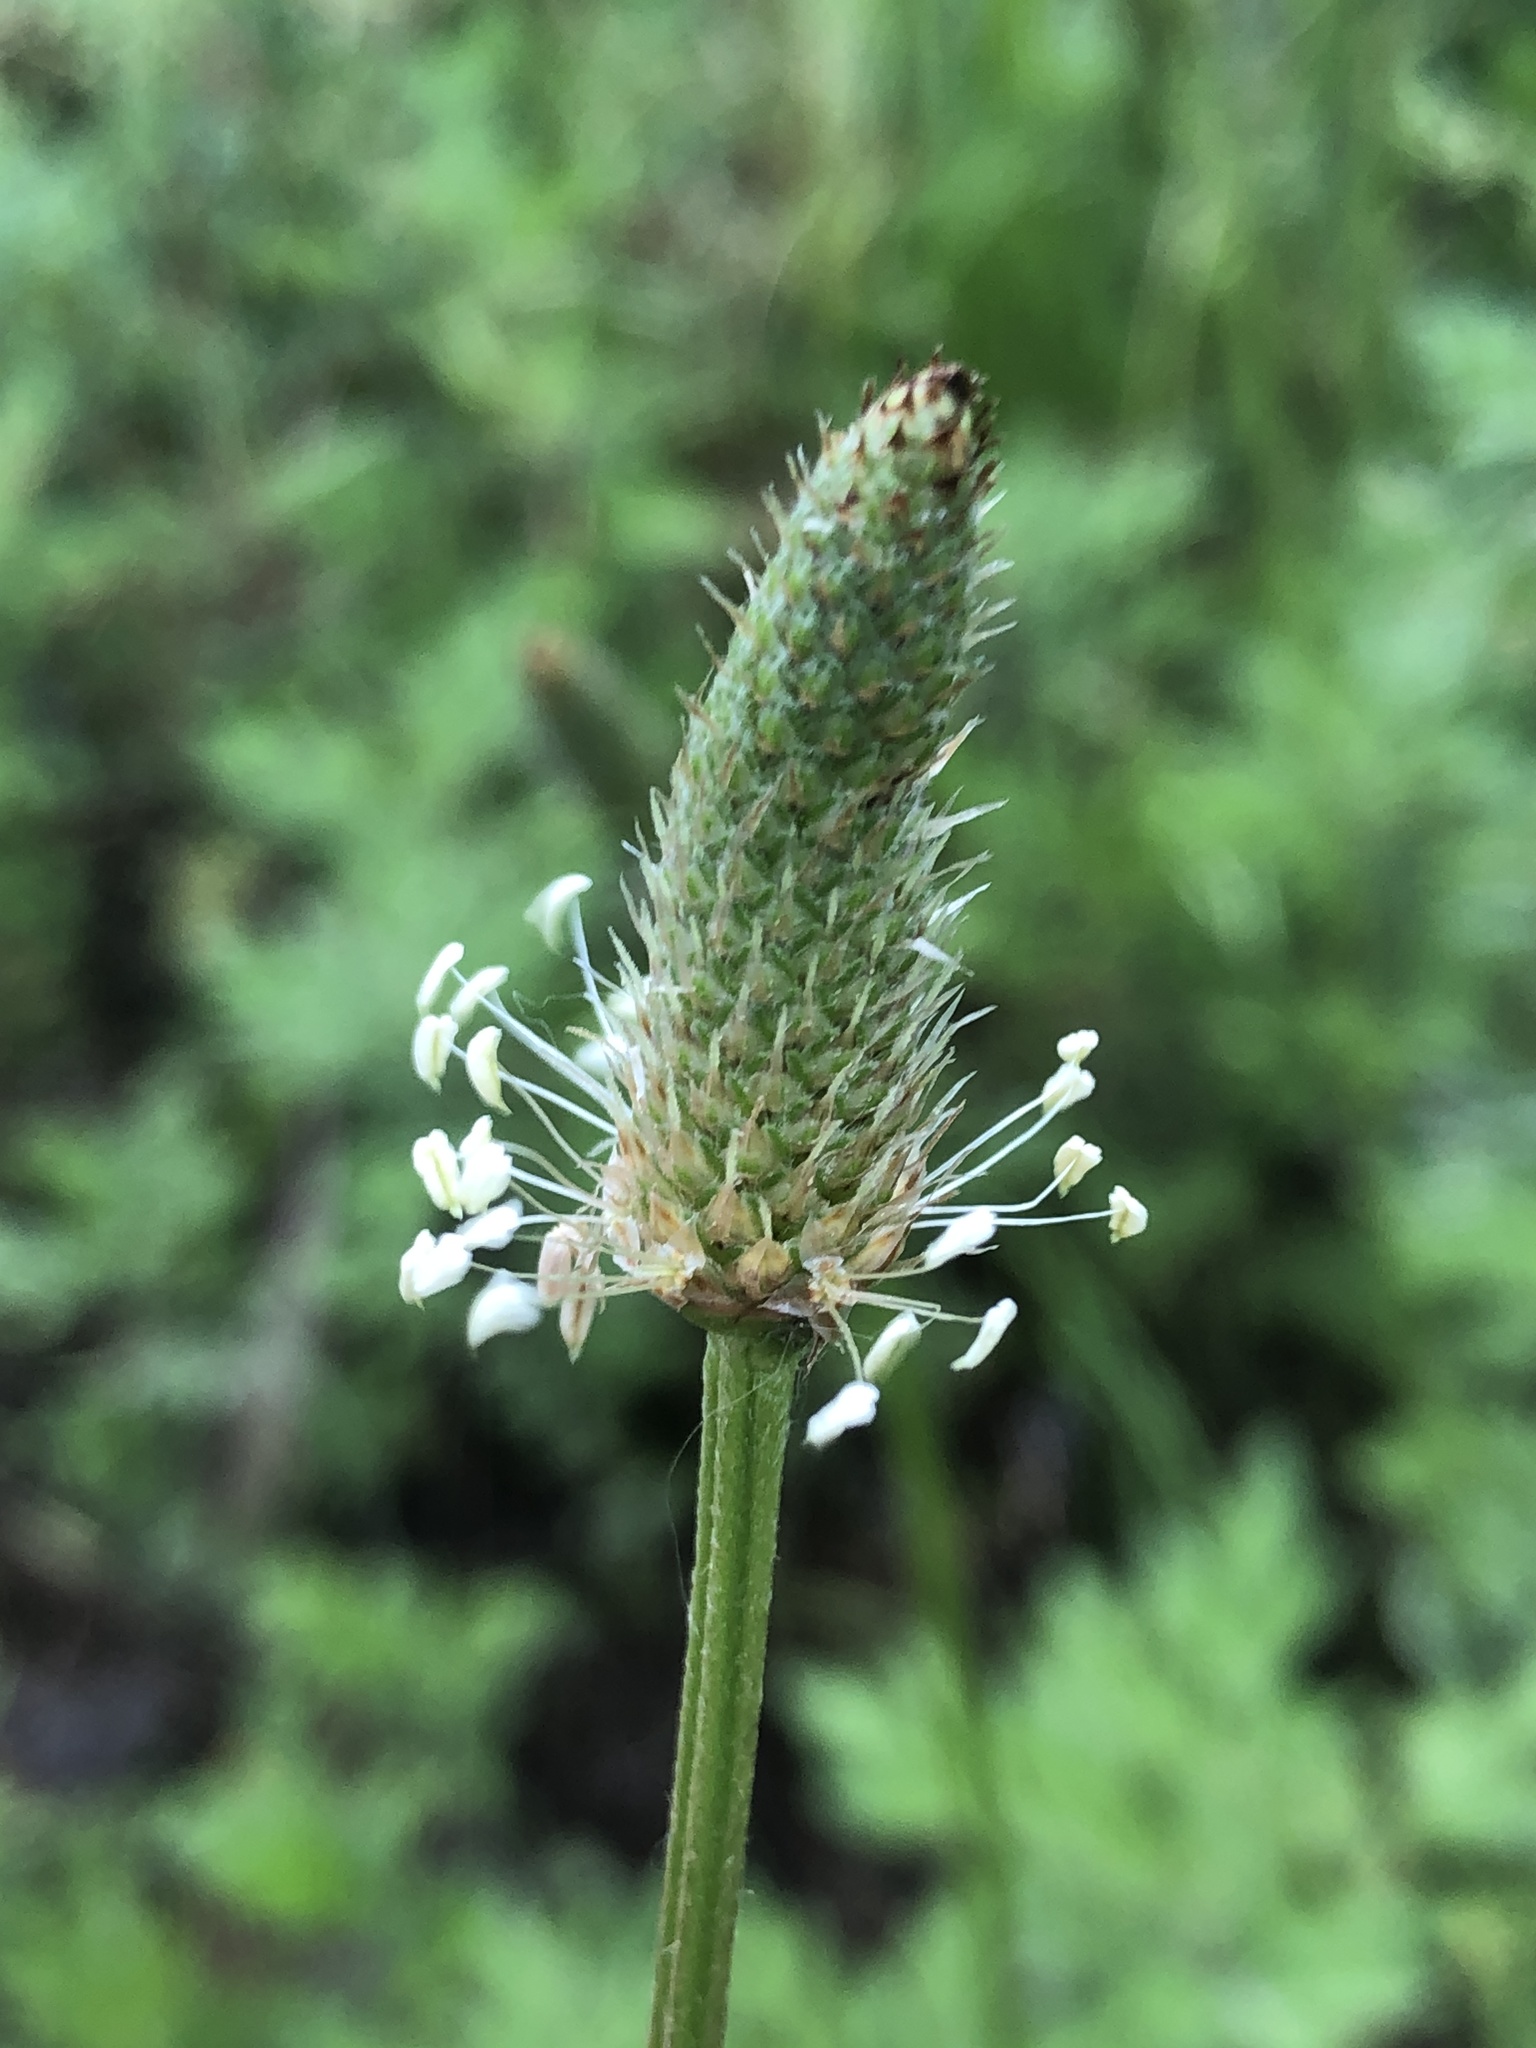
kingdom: Plantae
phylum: Tracheophyta
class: Magnoliopsida
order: Lamiales
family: Plantaginaceae
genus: Plantago
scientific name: Plantago lanceolata
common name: Ribwort plantain
